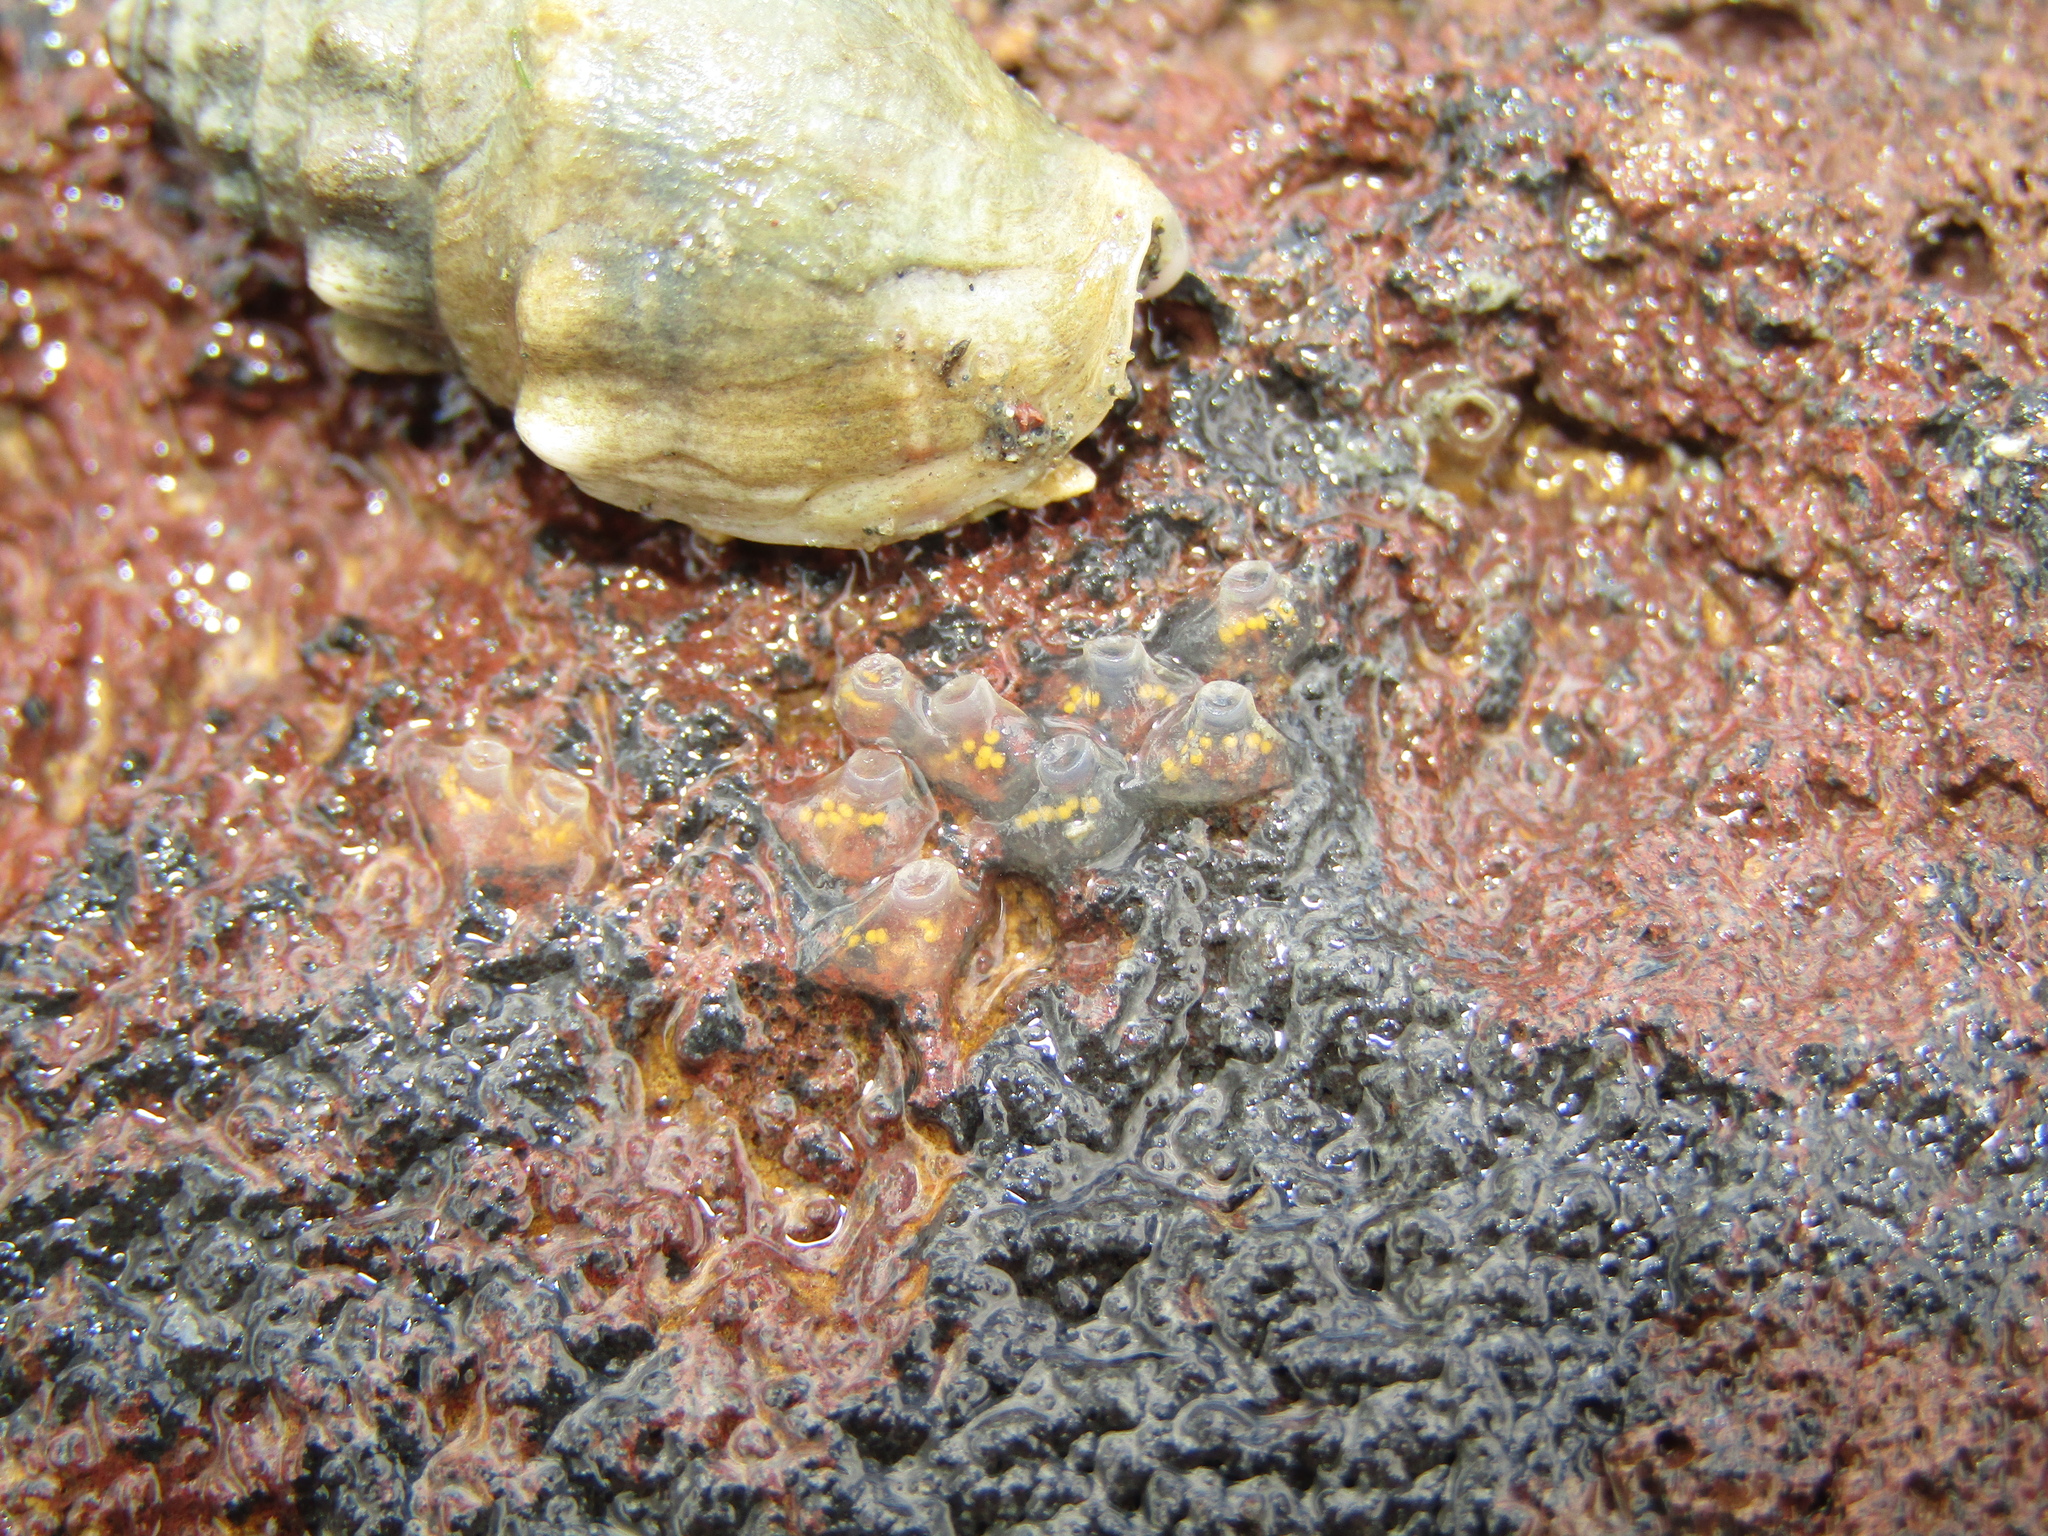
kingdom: Animalia
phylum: Mollusca
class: Gastropoda
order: Neogastropoda
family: Cominellidae
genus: Cominella
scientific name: Cominella glandiformis
